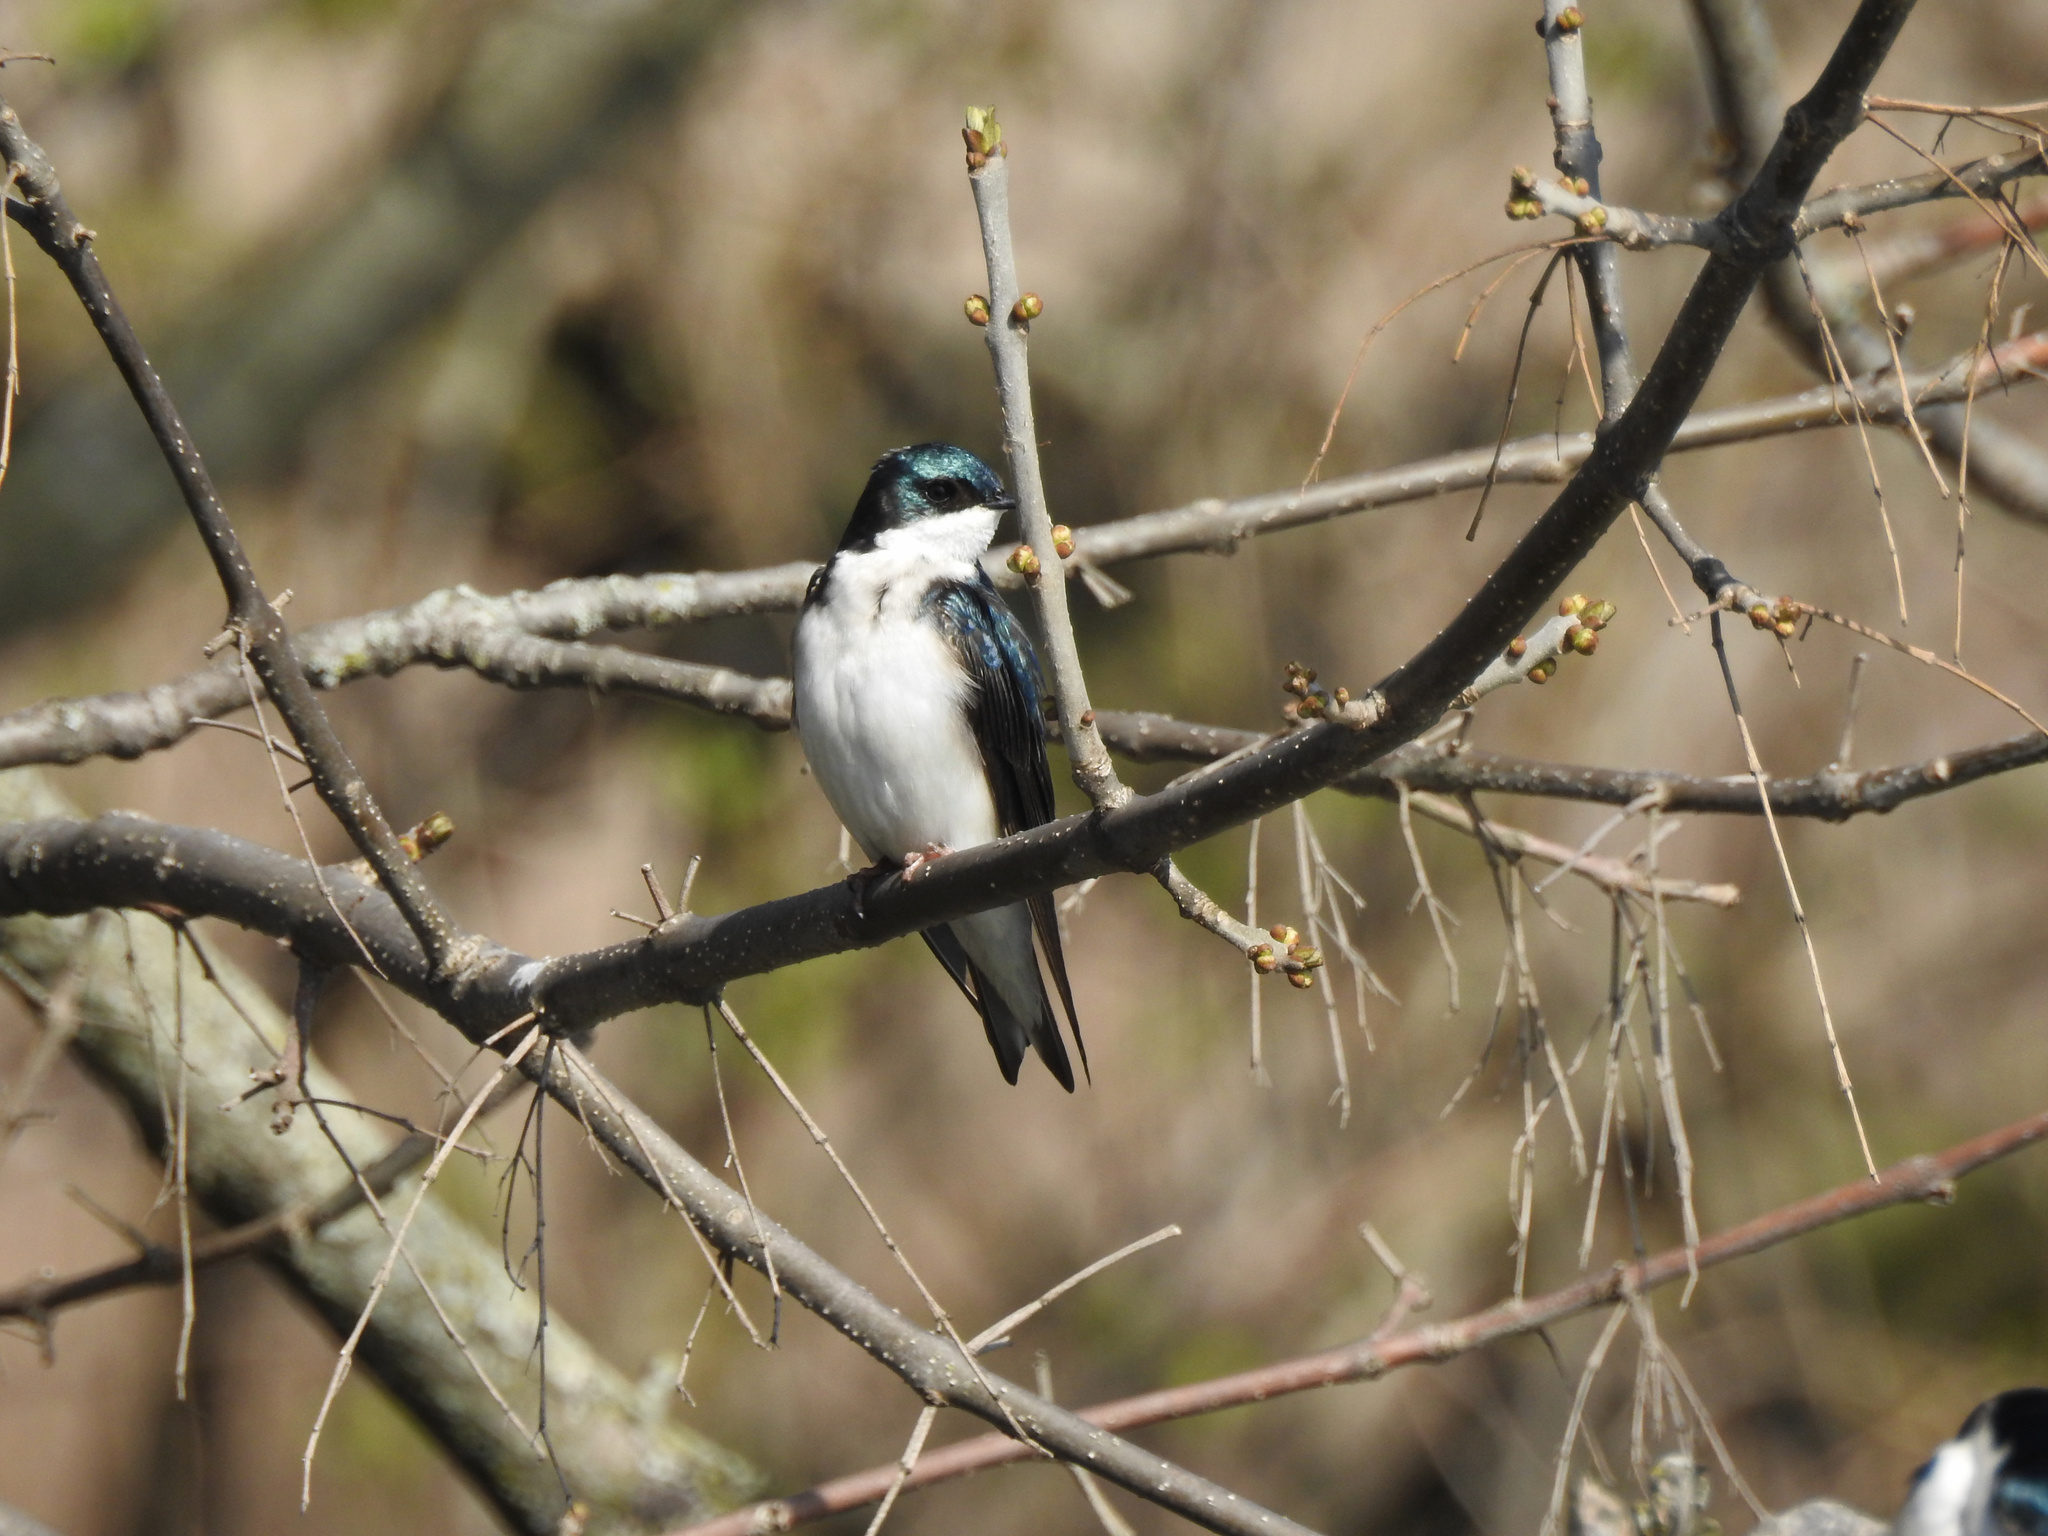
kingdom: Animalia
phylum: Chordata
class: Aves
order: Passeriformes
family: Hirundinidae
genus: Tachycineta
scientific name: Tachycineta bicolor
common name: Tree swallow
